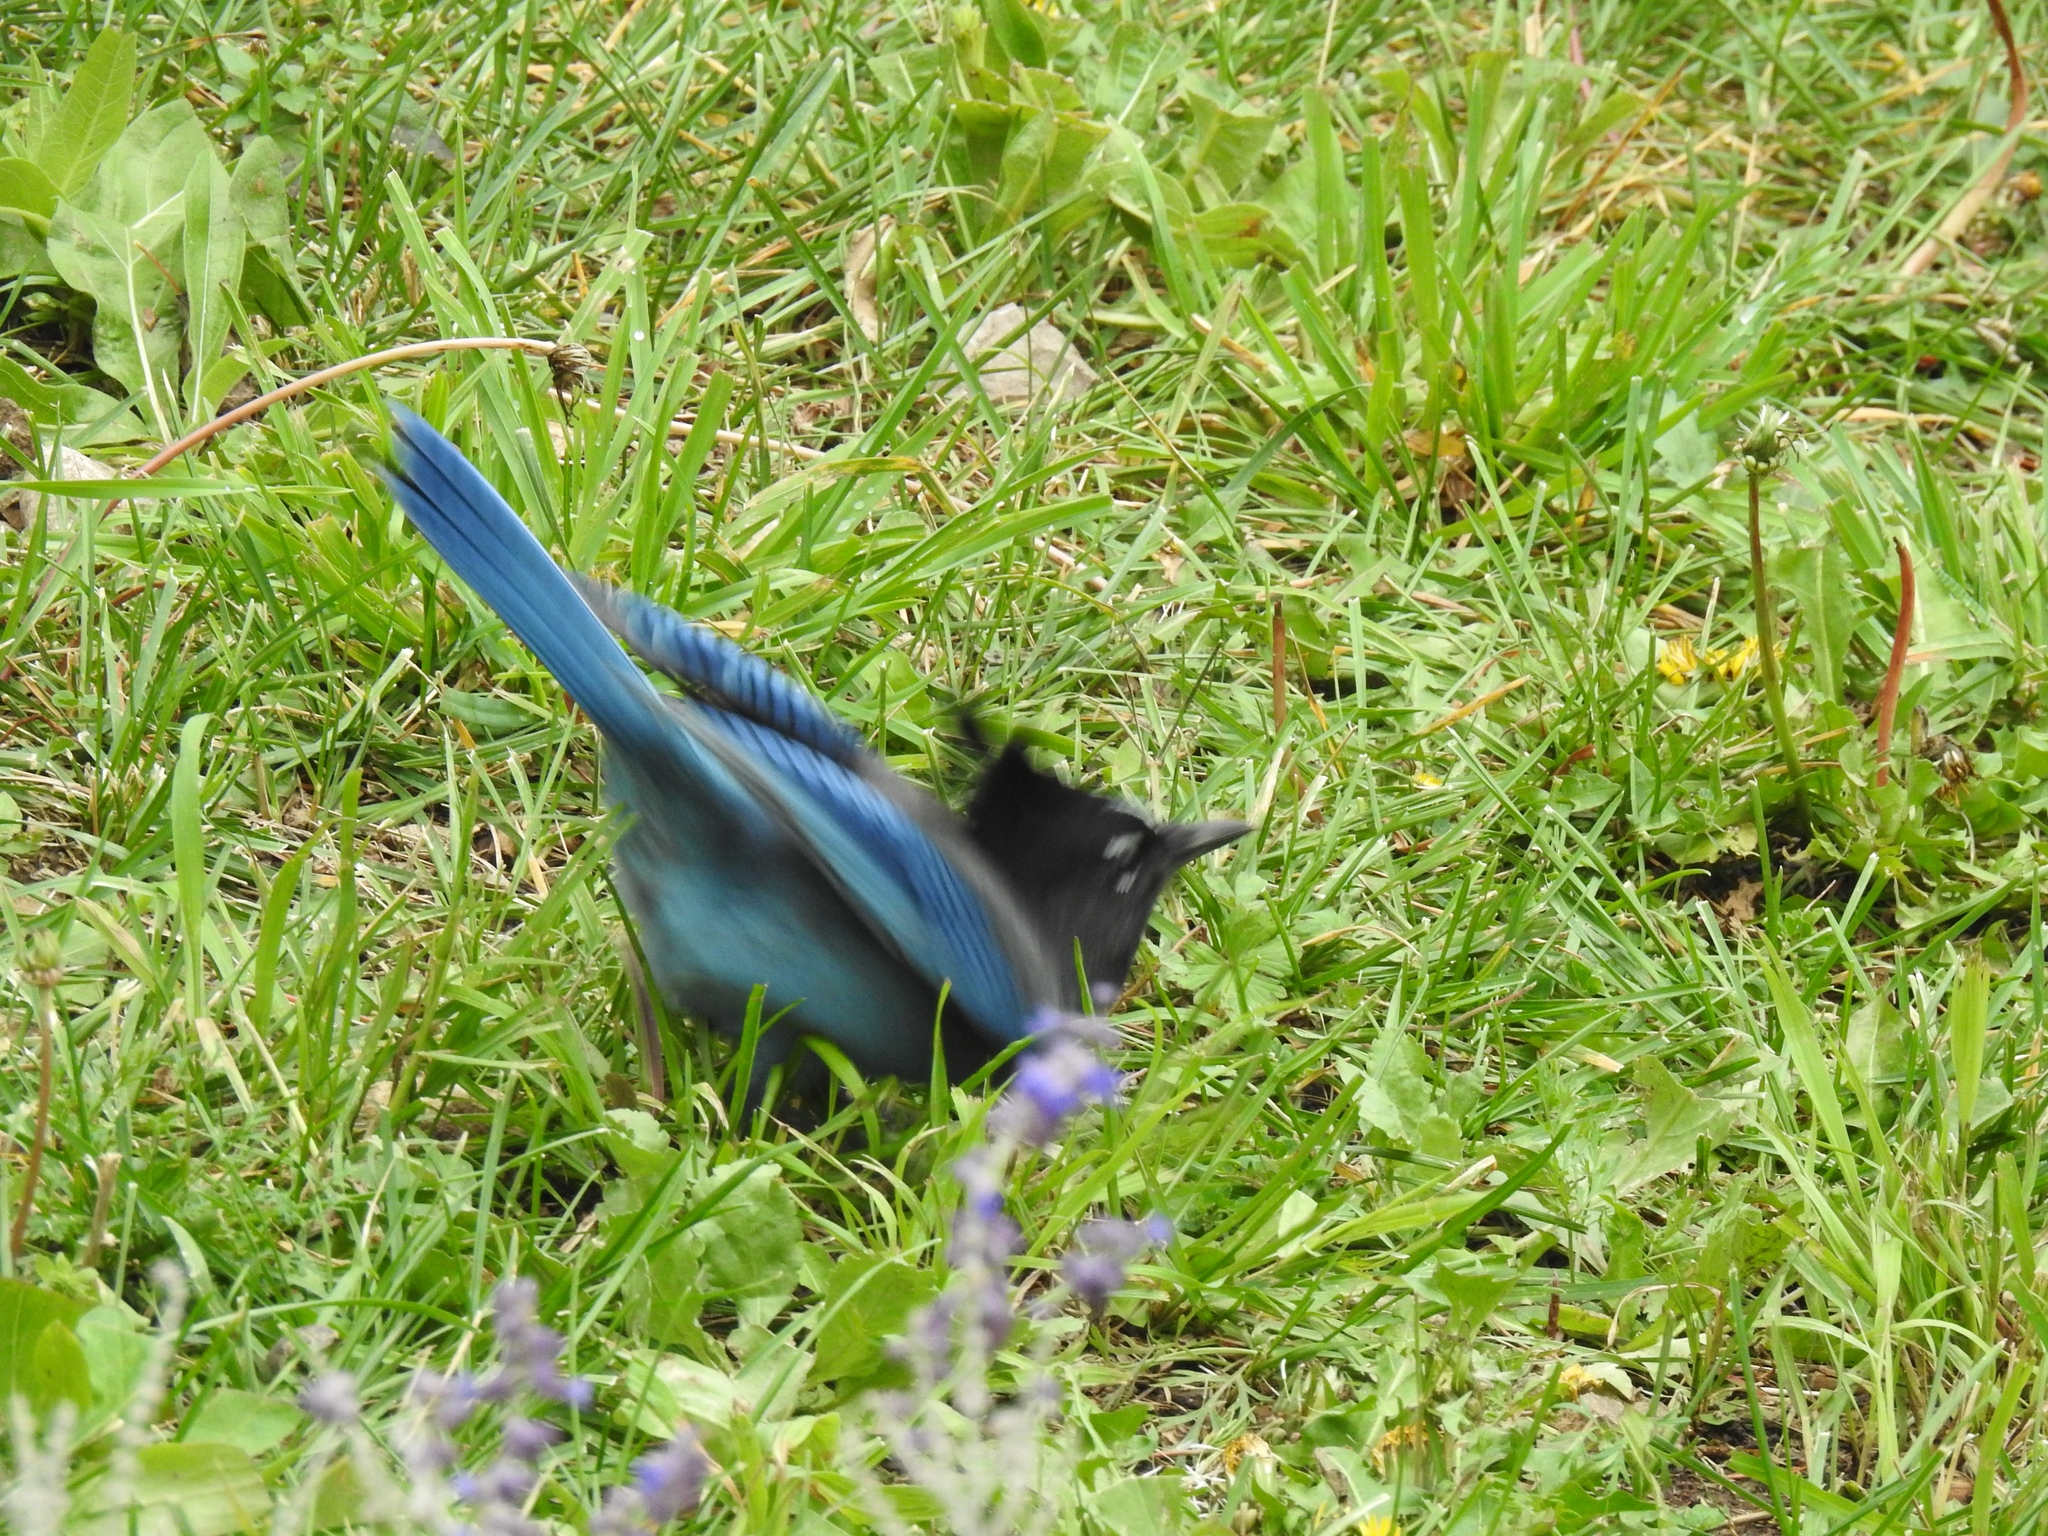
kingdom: Animalia
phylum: Chordata
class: Aves
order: Passeriformes
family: Corvidae
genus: Cyanocitta
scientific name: Cyanocitta stelleri
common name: Steller's jay
